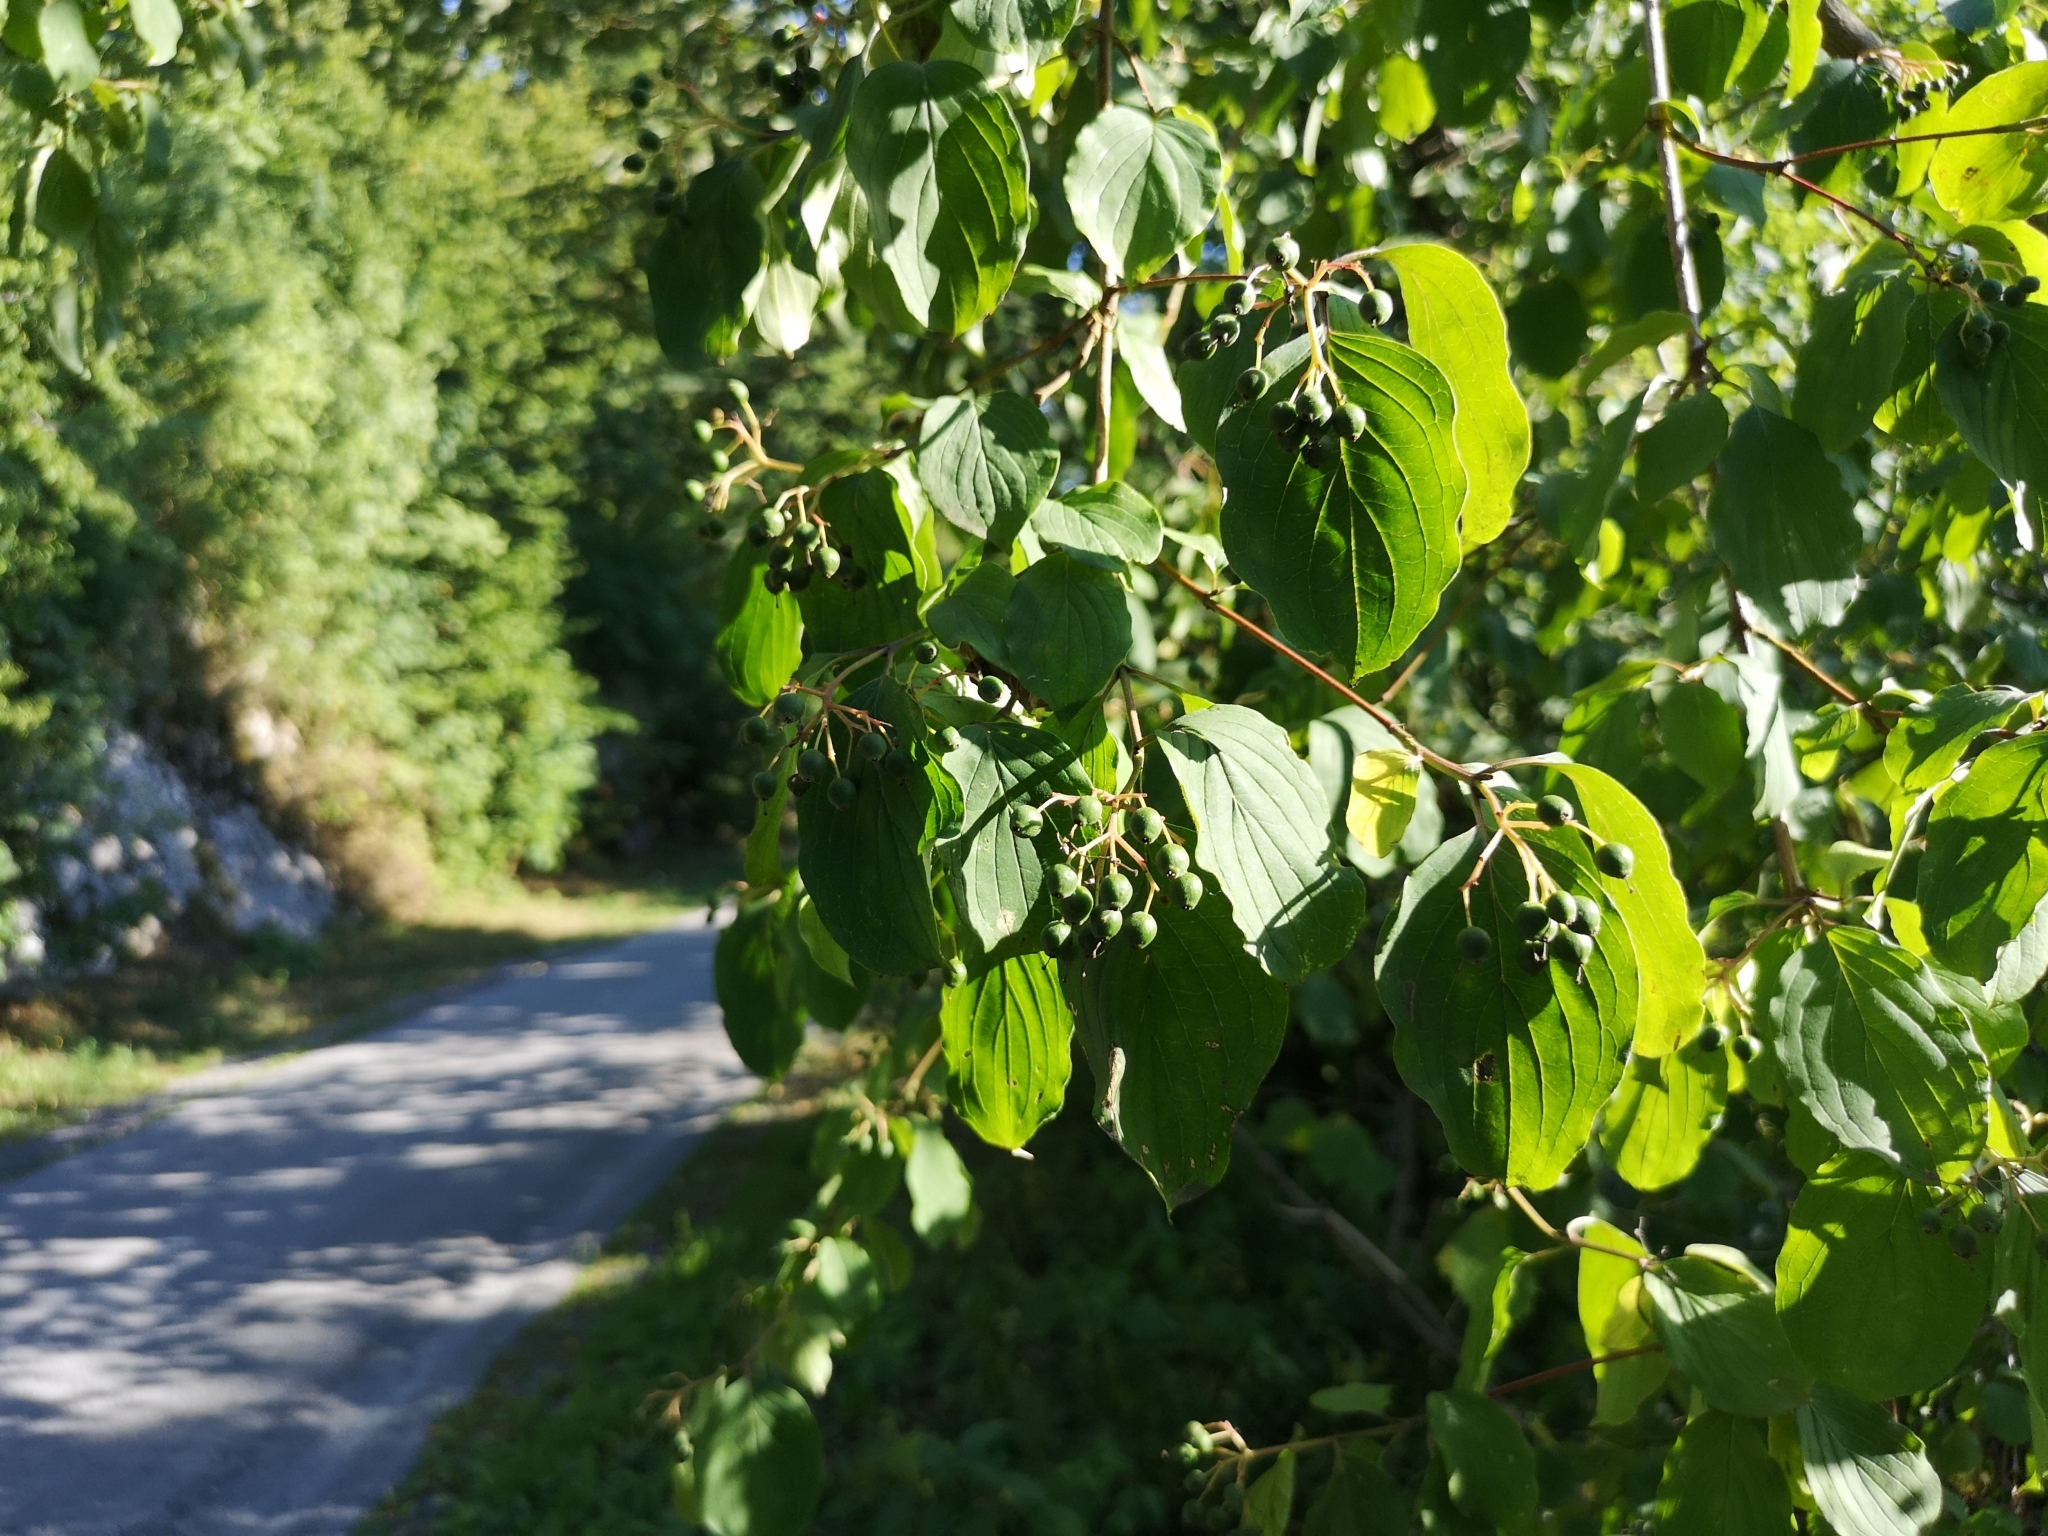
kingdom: Plantae
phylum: Tracheophyta
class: Magnoliopsida
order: Cornales
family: Cornaceae
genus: Cornus
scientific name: Cornus sanguinea
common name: Dogwood
